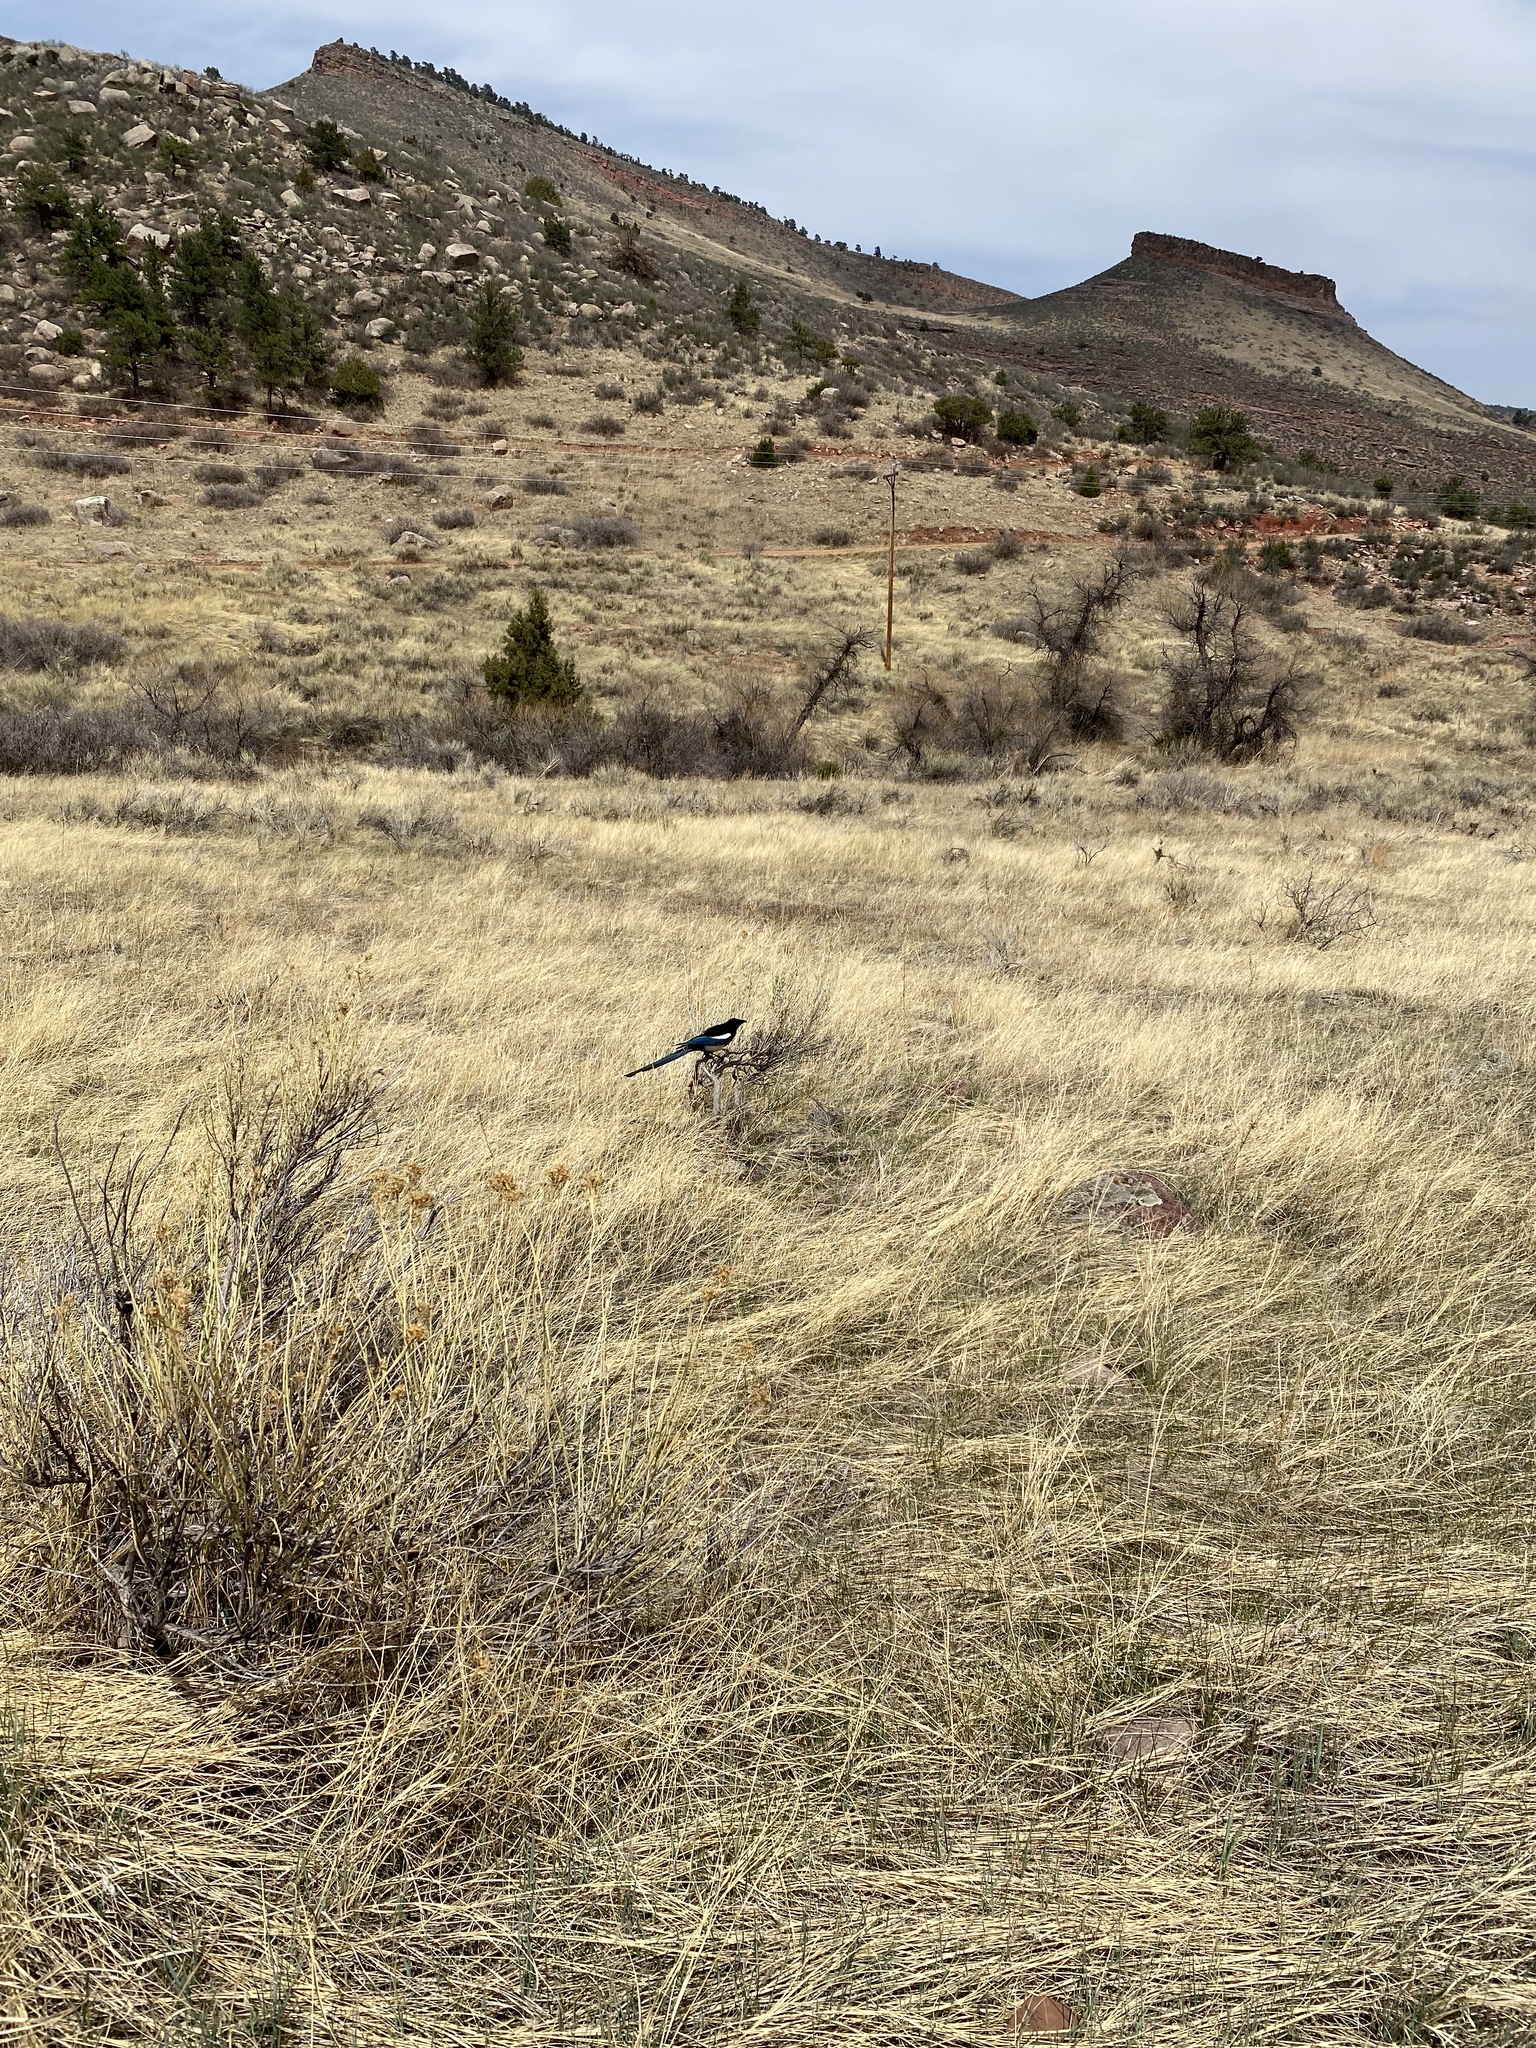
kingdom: Animalia
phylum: Chordata
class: Aves
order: Passeriformes
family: Corvidae
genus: Pica
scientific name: Pica hudsonia
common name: Black-billed magpie
